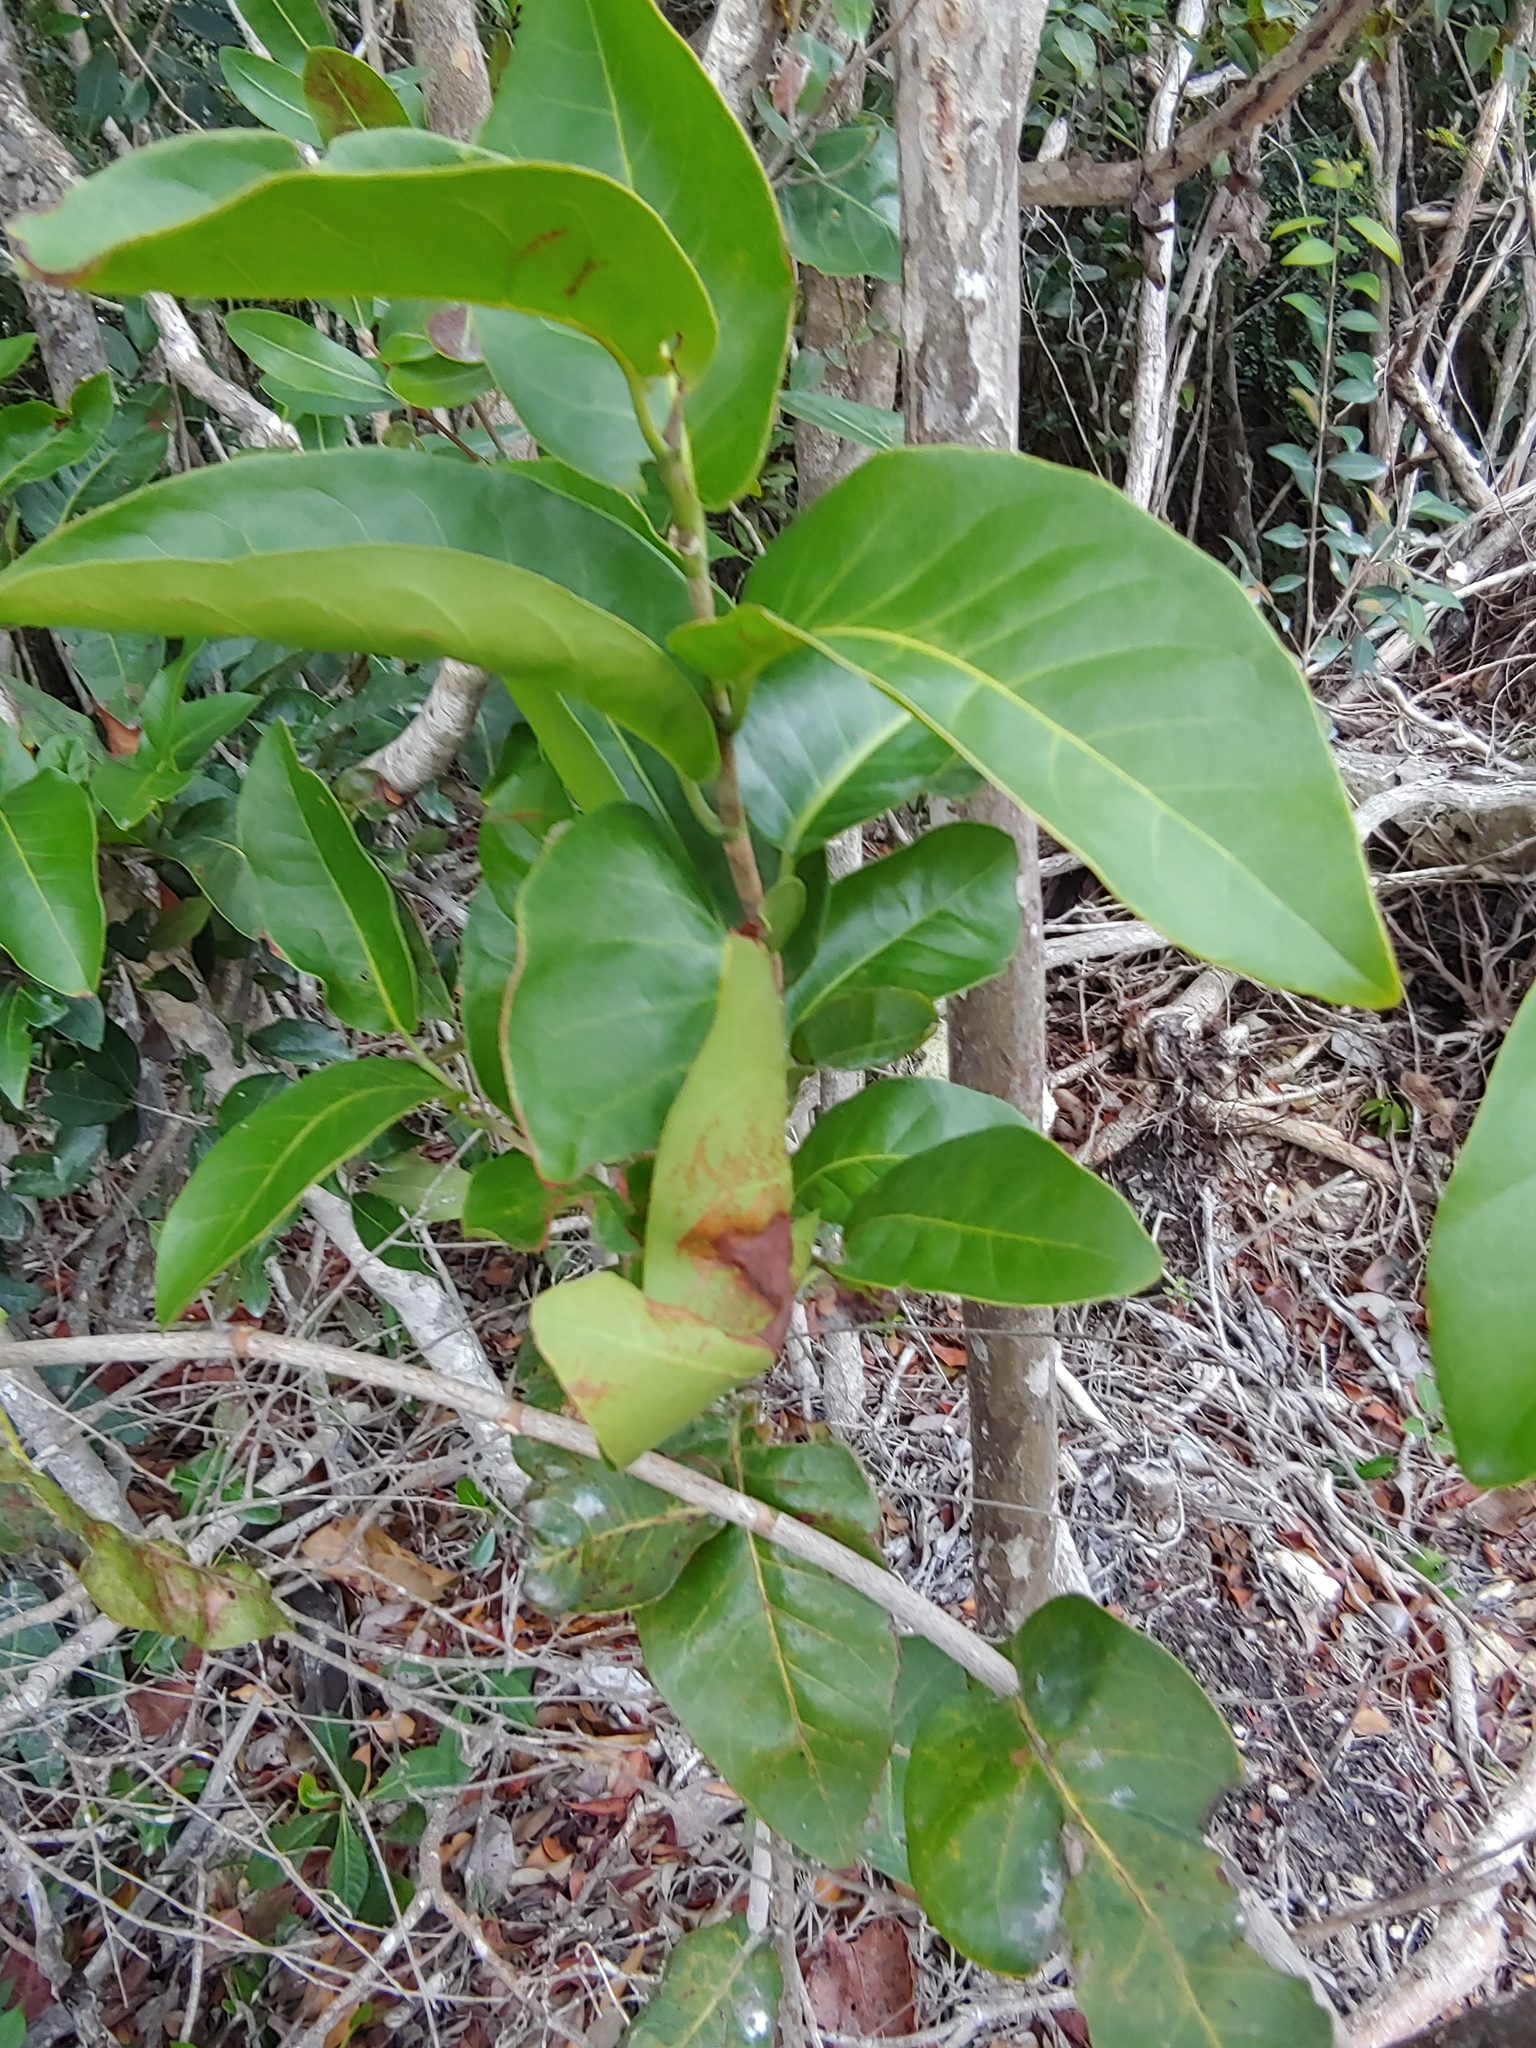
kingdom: Plantae
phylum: Tracheophyta
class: Magnoliopsida
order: Caryophyllales
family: Polygonaceae
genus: Coccoloba
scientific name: Coccoloba diversifolia
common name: Pigeon-plum
